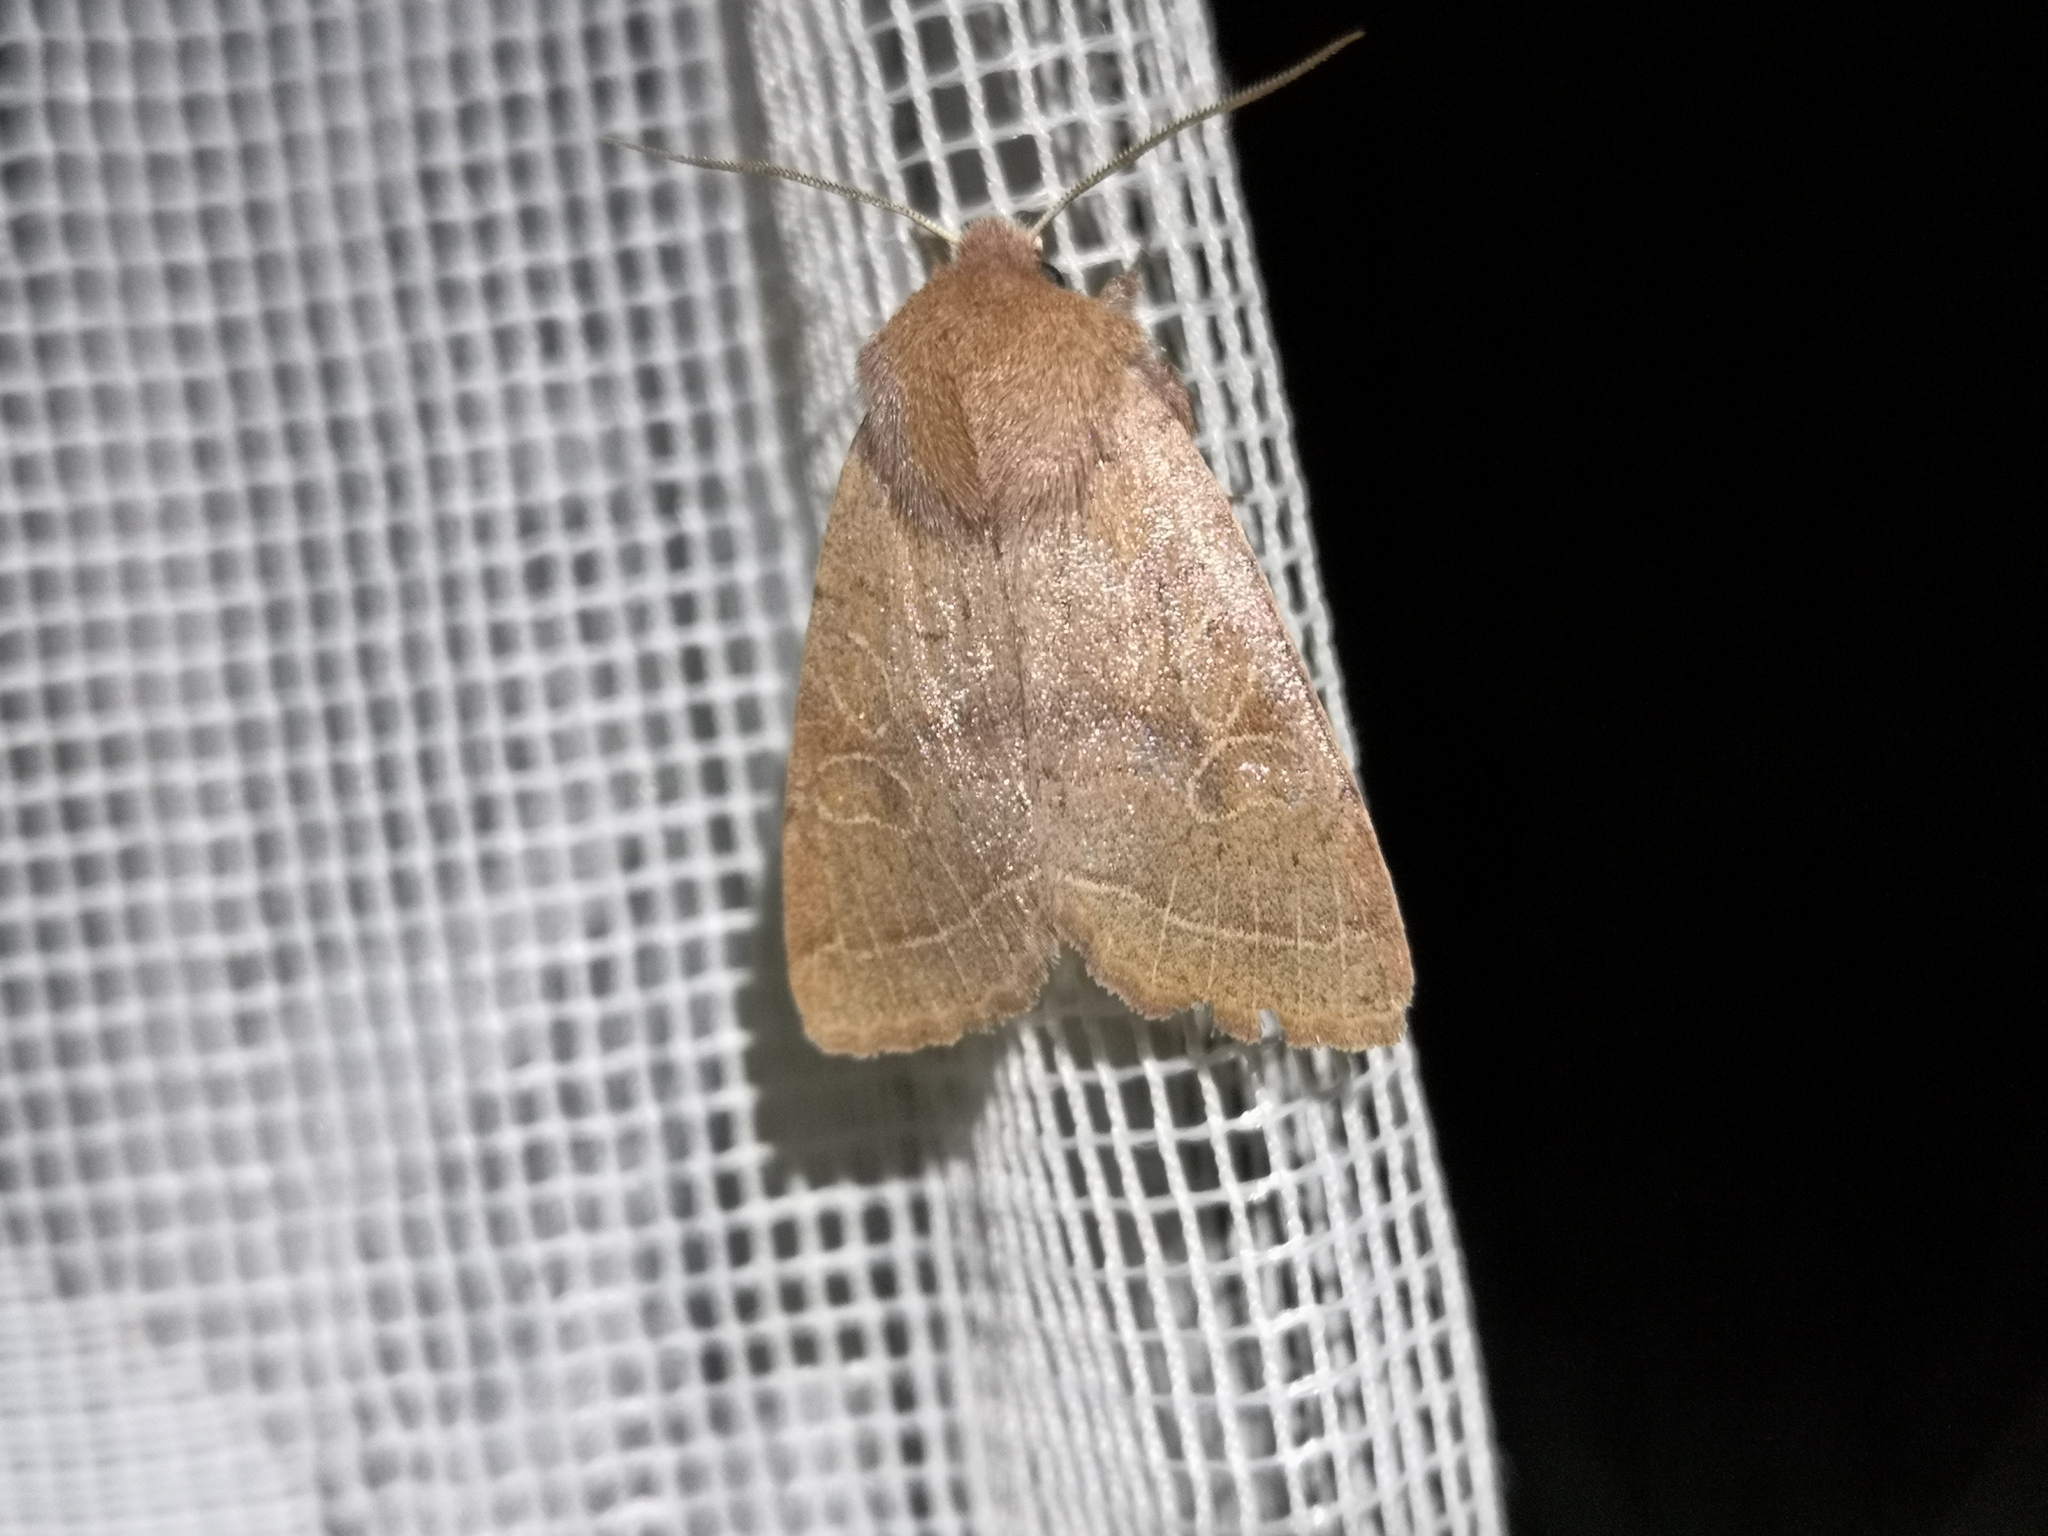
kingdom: Animalia
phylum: Arthropoda
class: Insecta
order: Lepidoptera
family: Noctuidae
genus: Orthosia
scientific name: Orthosia cerasi
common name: Common quaker
